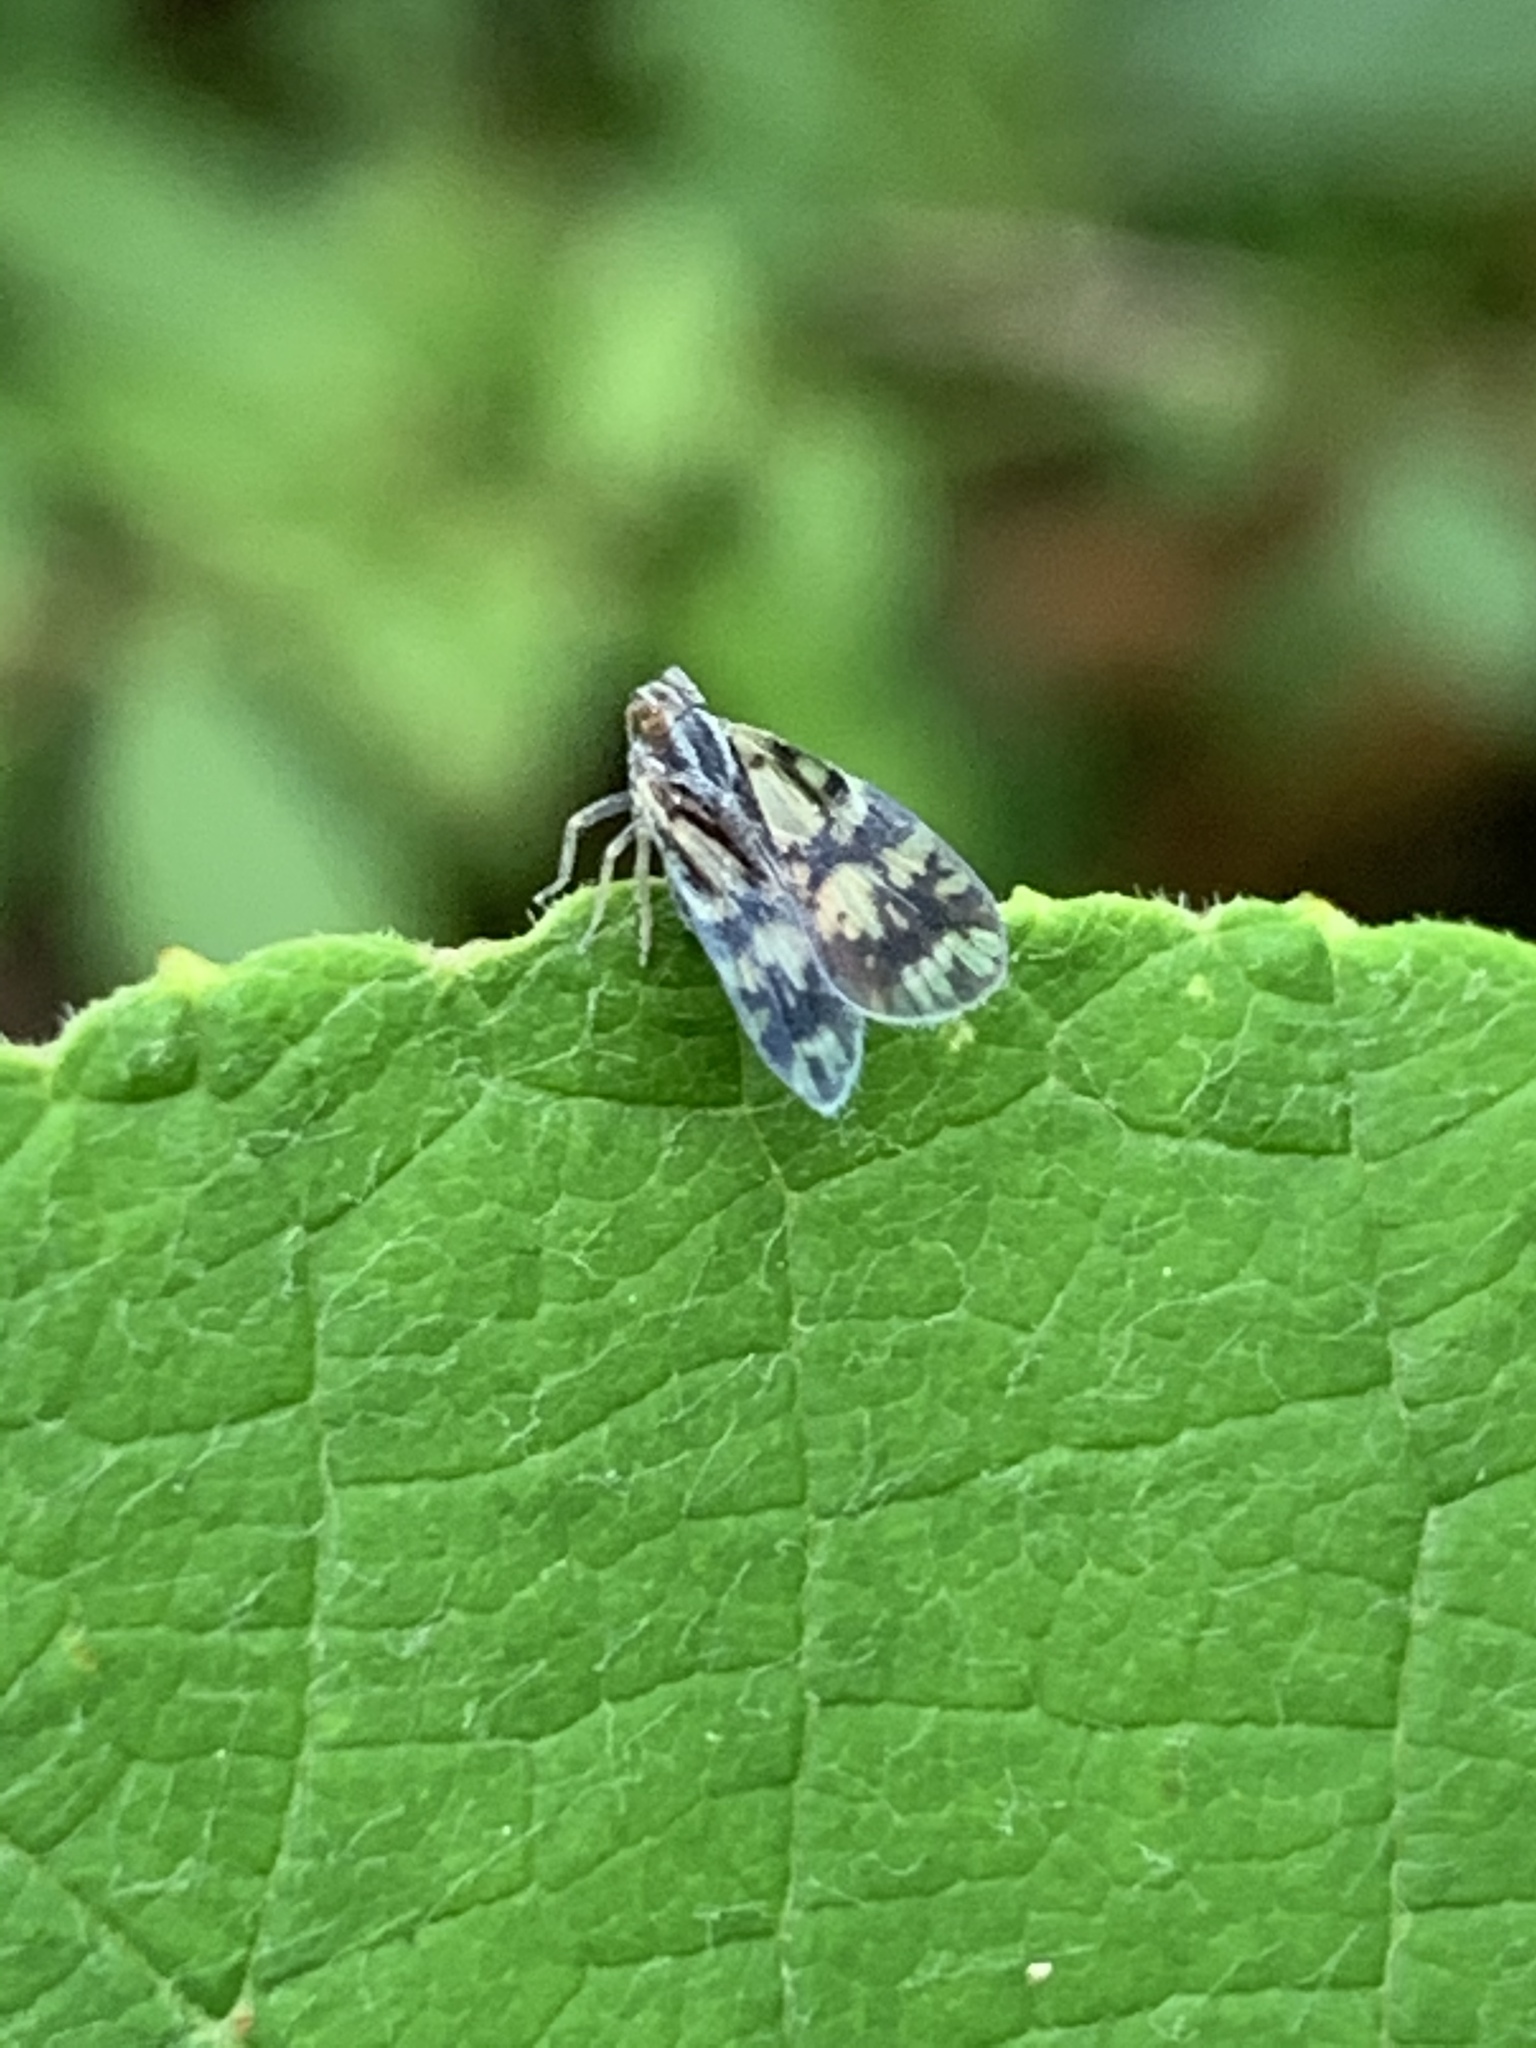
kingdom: Animalia
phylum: Arthropoda
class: Insecta
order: Hemiptera
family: Cixiidae
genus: Bothriocera
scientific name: Bothriocera cognita
